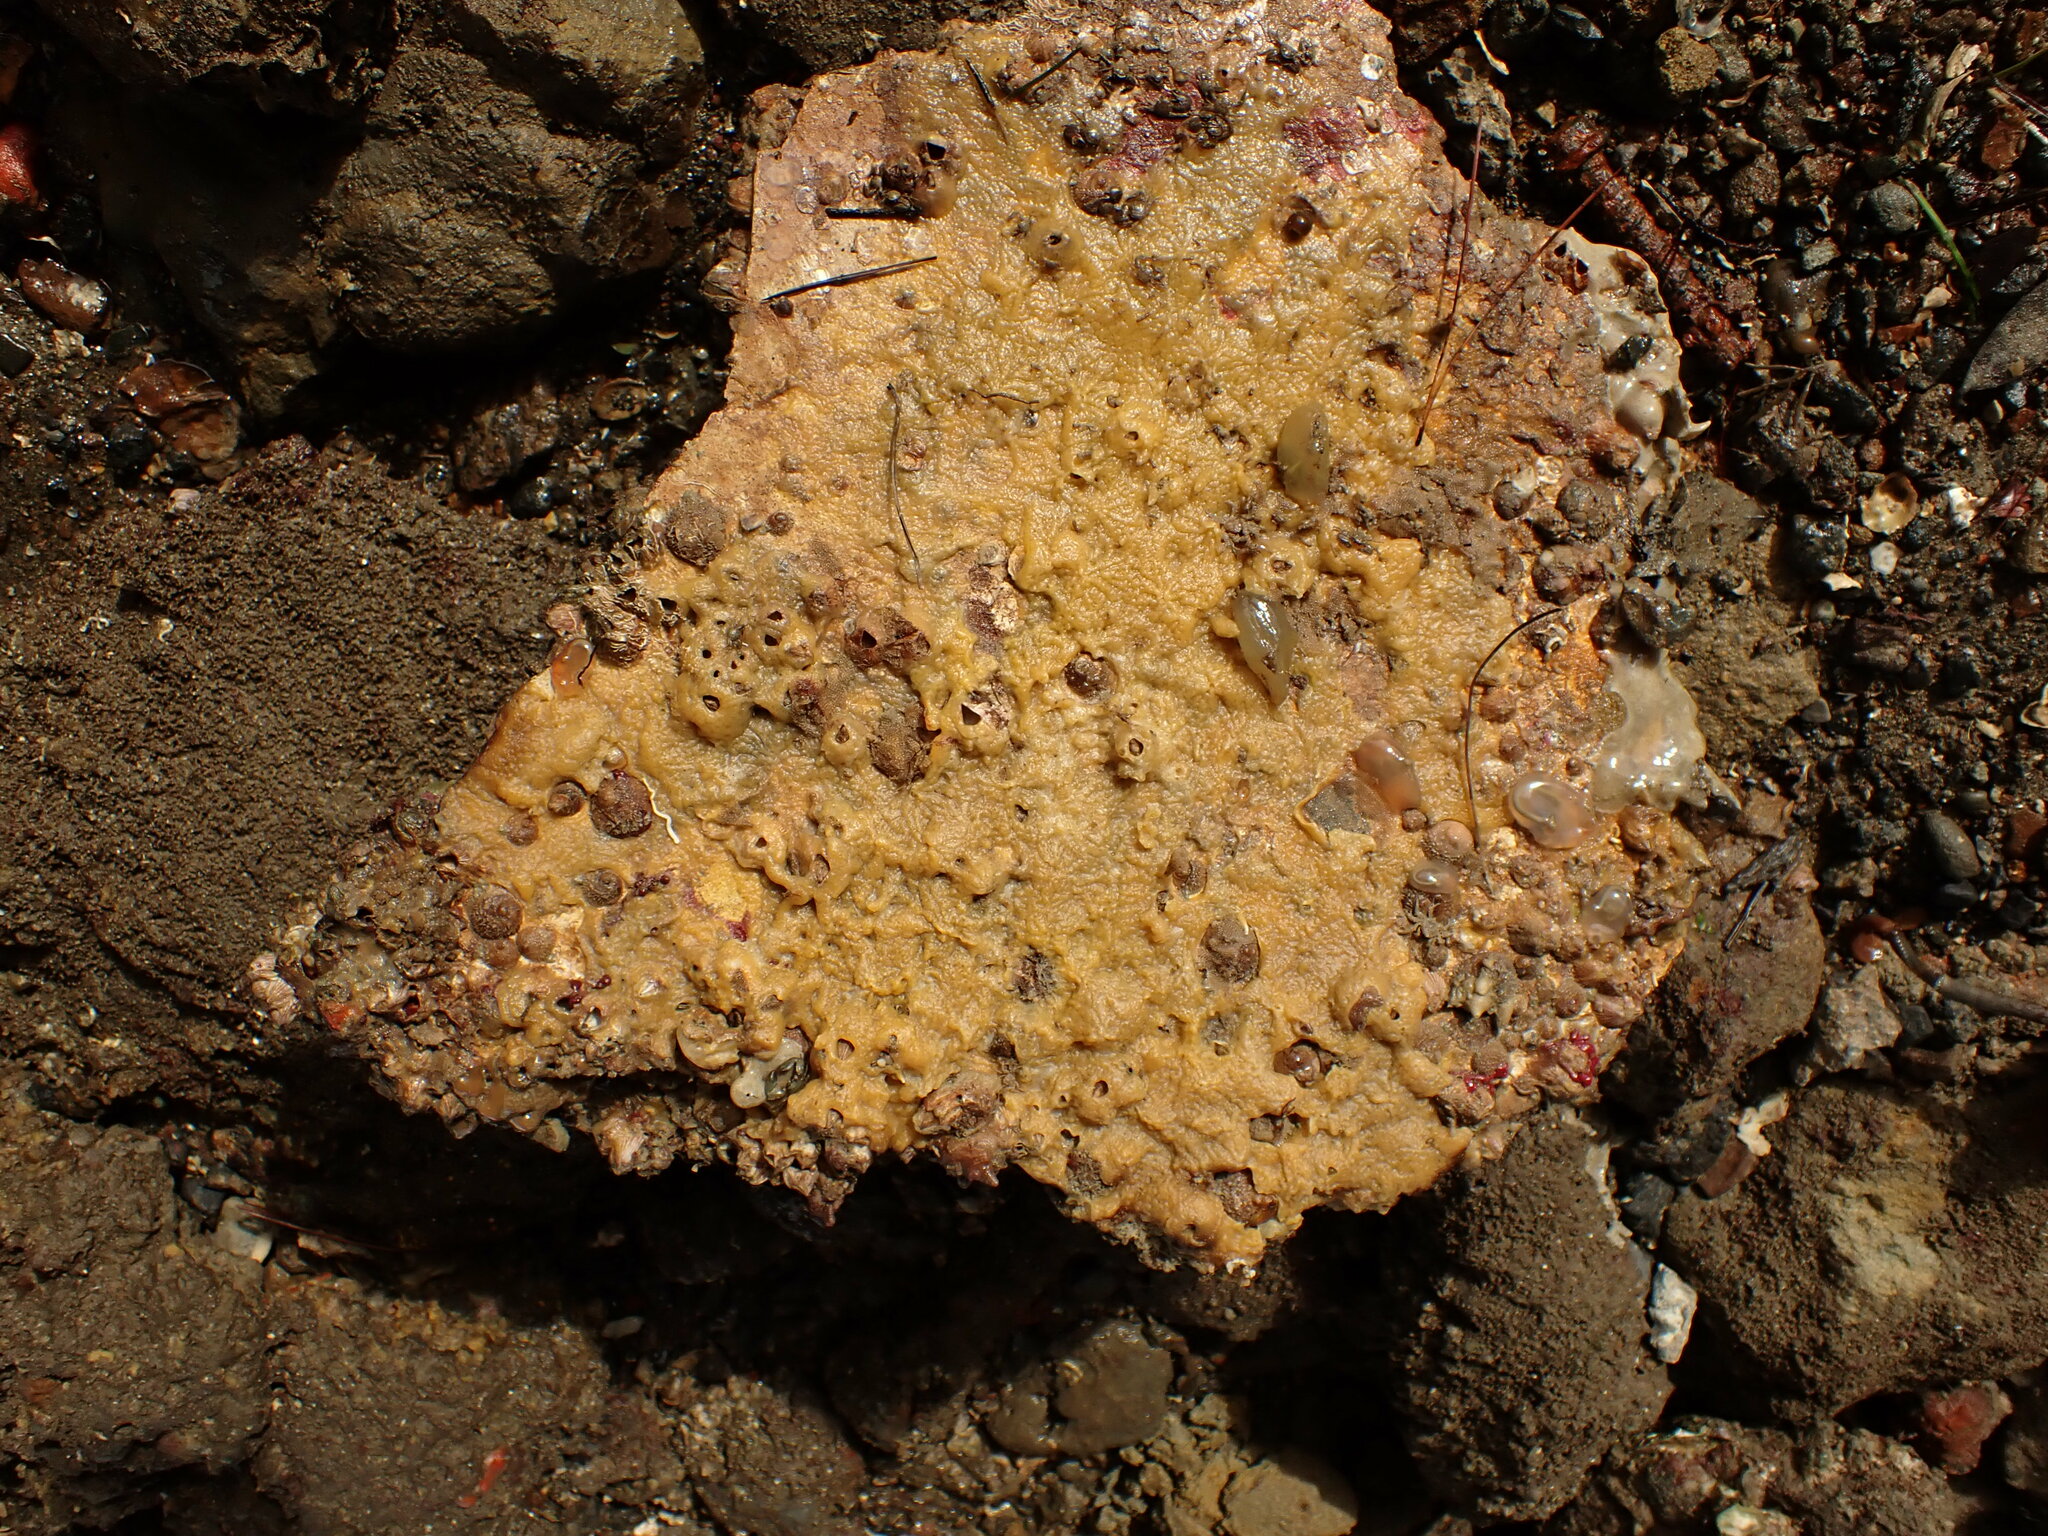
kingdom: Animalia
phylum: Mollusca
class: Gastropoda
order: Littorinimorpha
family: Calyptraeidae
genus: Sigapatella
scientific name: Sigapatella novaezelandiae
